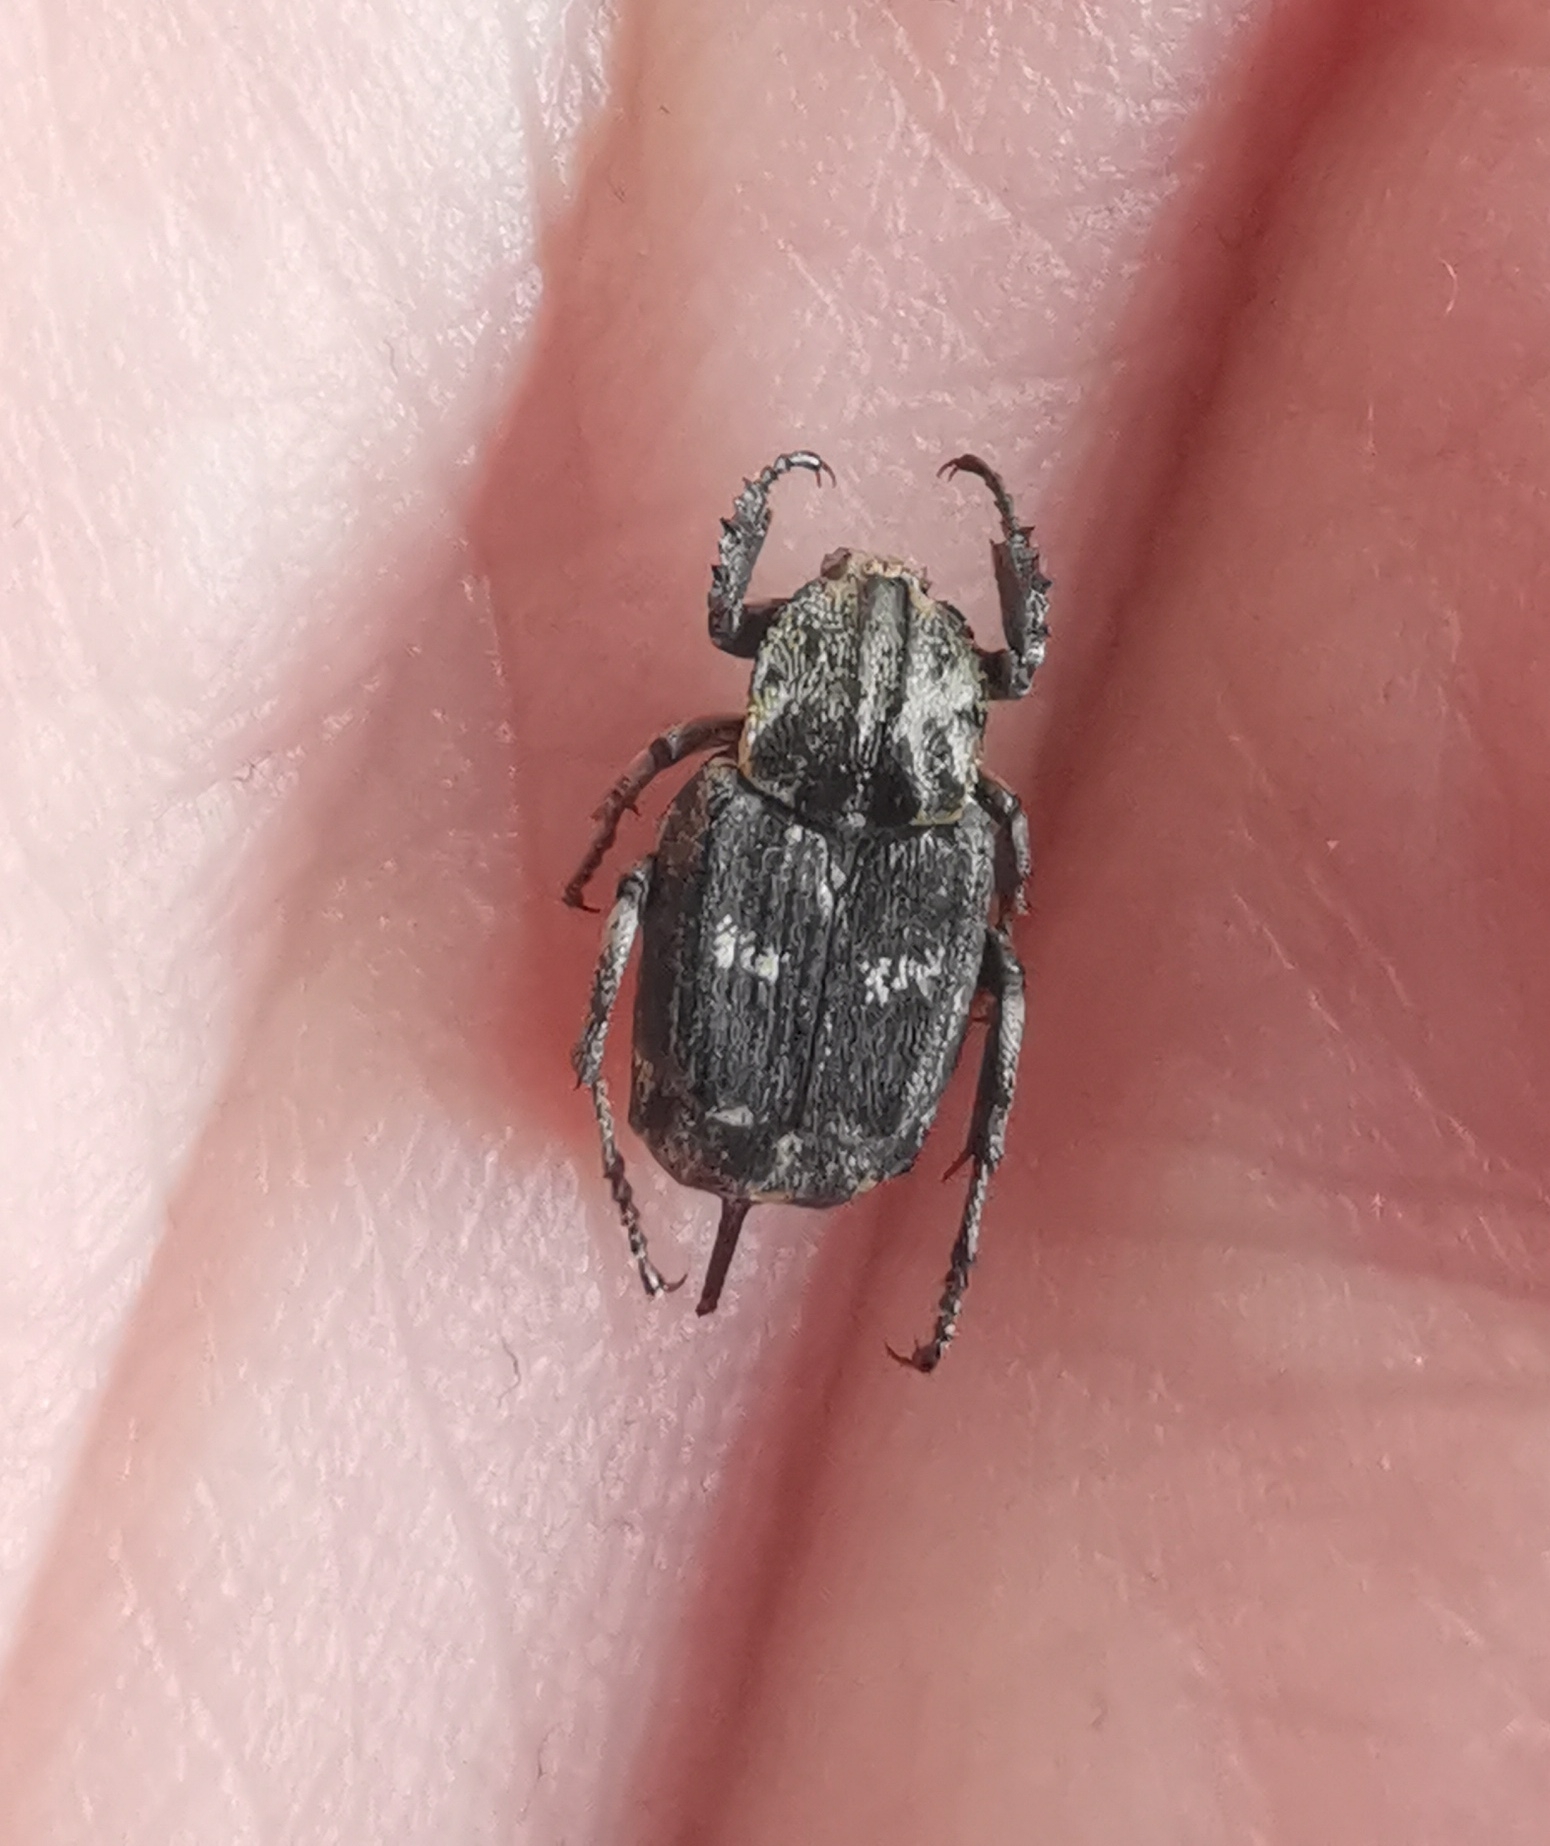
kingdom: Animalia
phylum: Arthropoda
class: Insecta
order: Coleoptera
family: Scarabaeidae
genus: Valgus
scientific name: Valgus hemipterus
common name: Bug flower chafer
